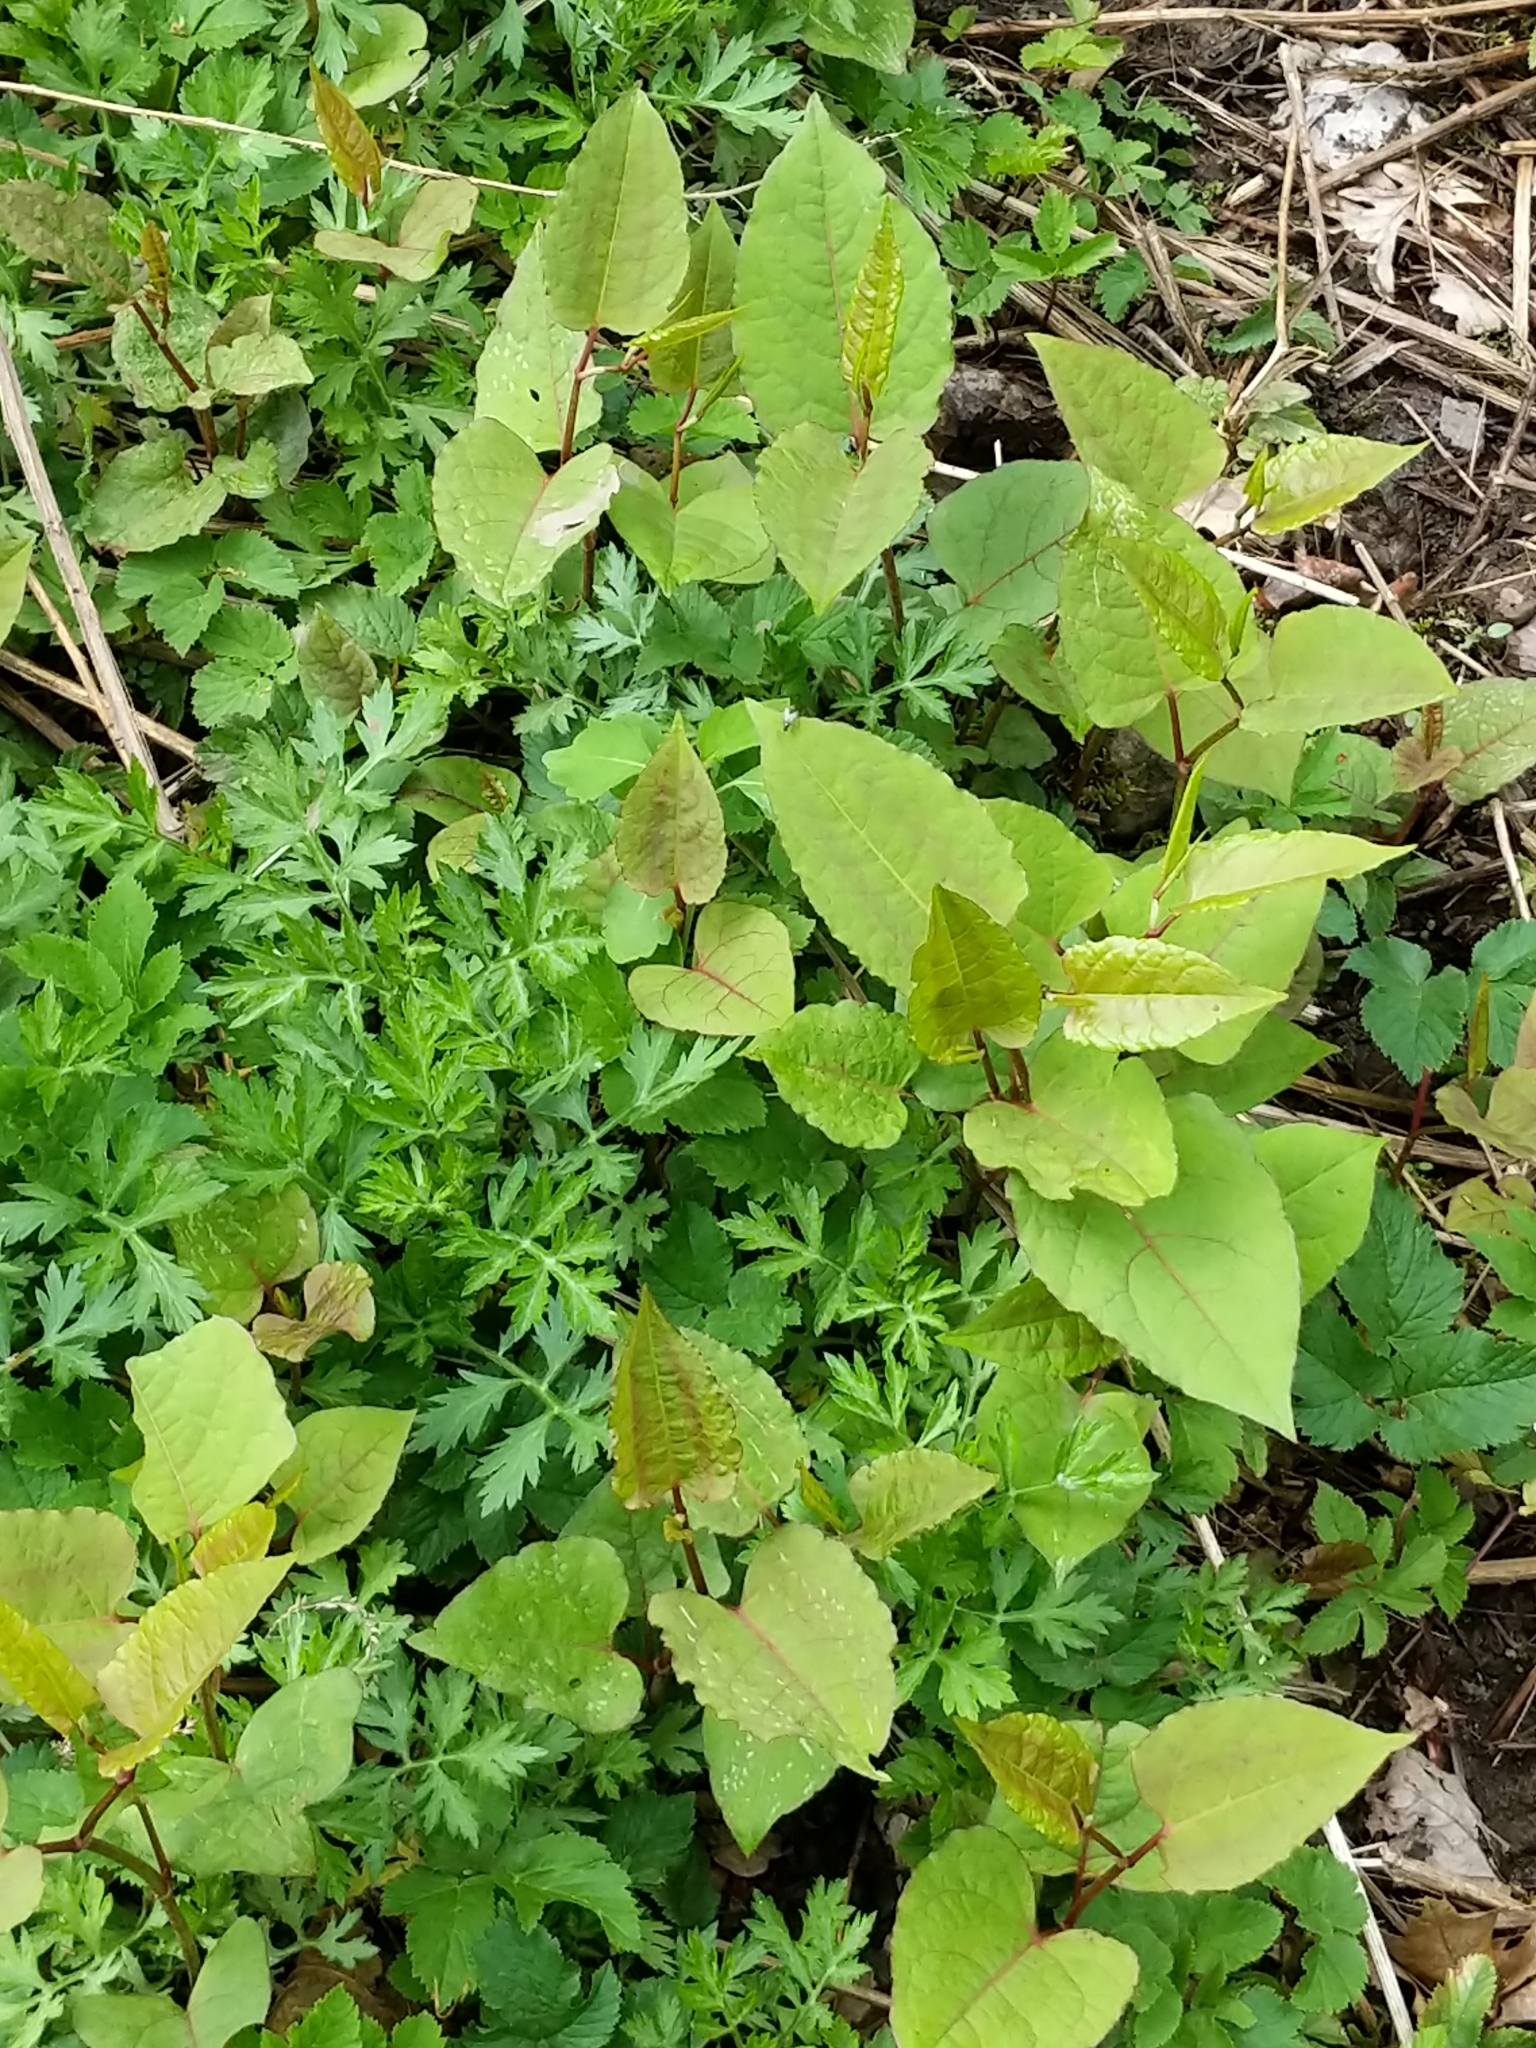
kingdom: Plantae
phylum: Tracheophyta
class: Magnoliopsida
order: Caryophyllales
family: Polygonaceae
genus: Reynoutria
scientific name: Reynoutria japonica
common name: Japanese knotweed
